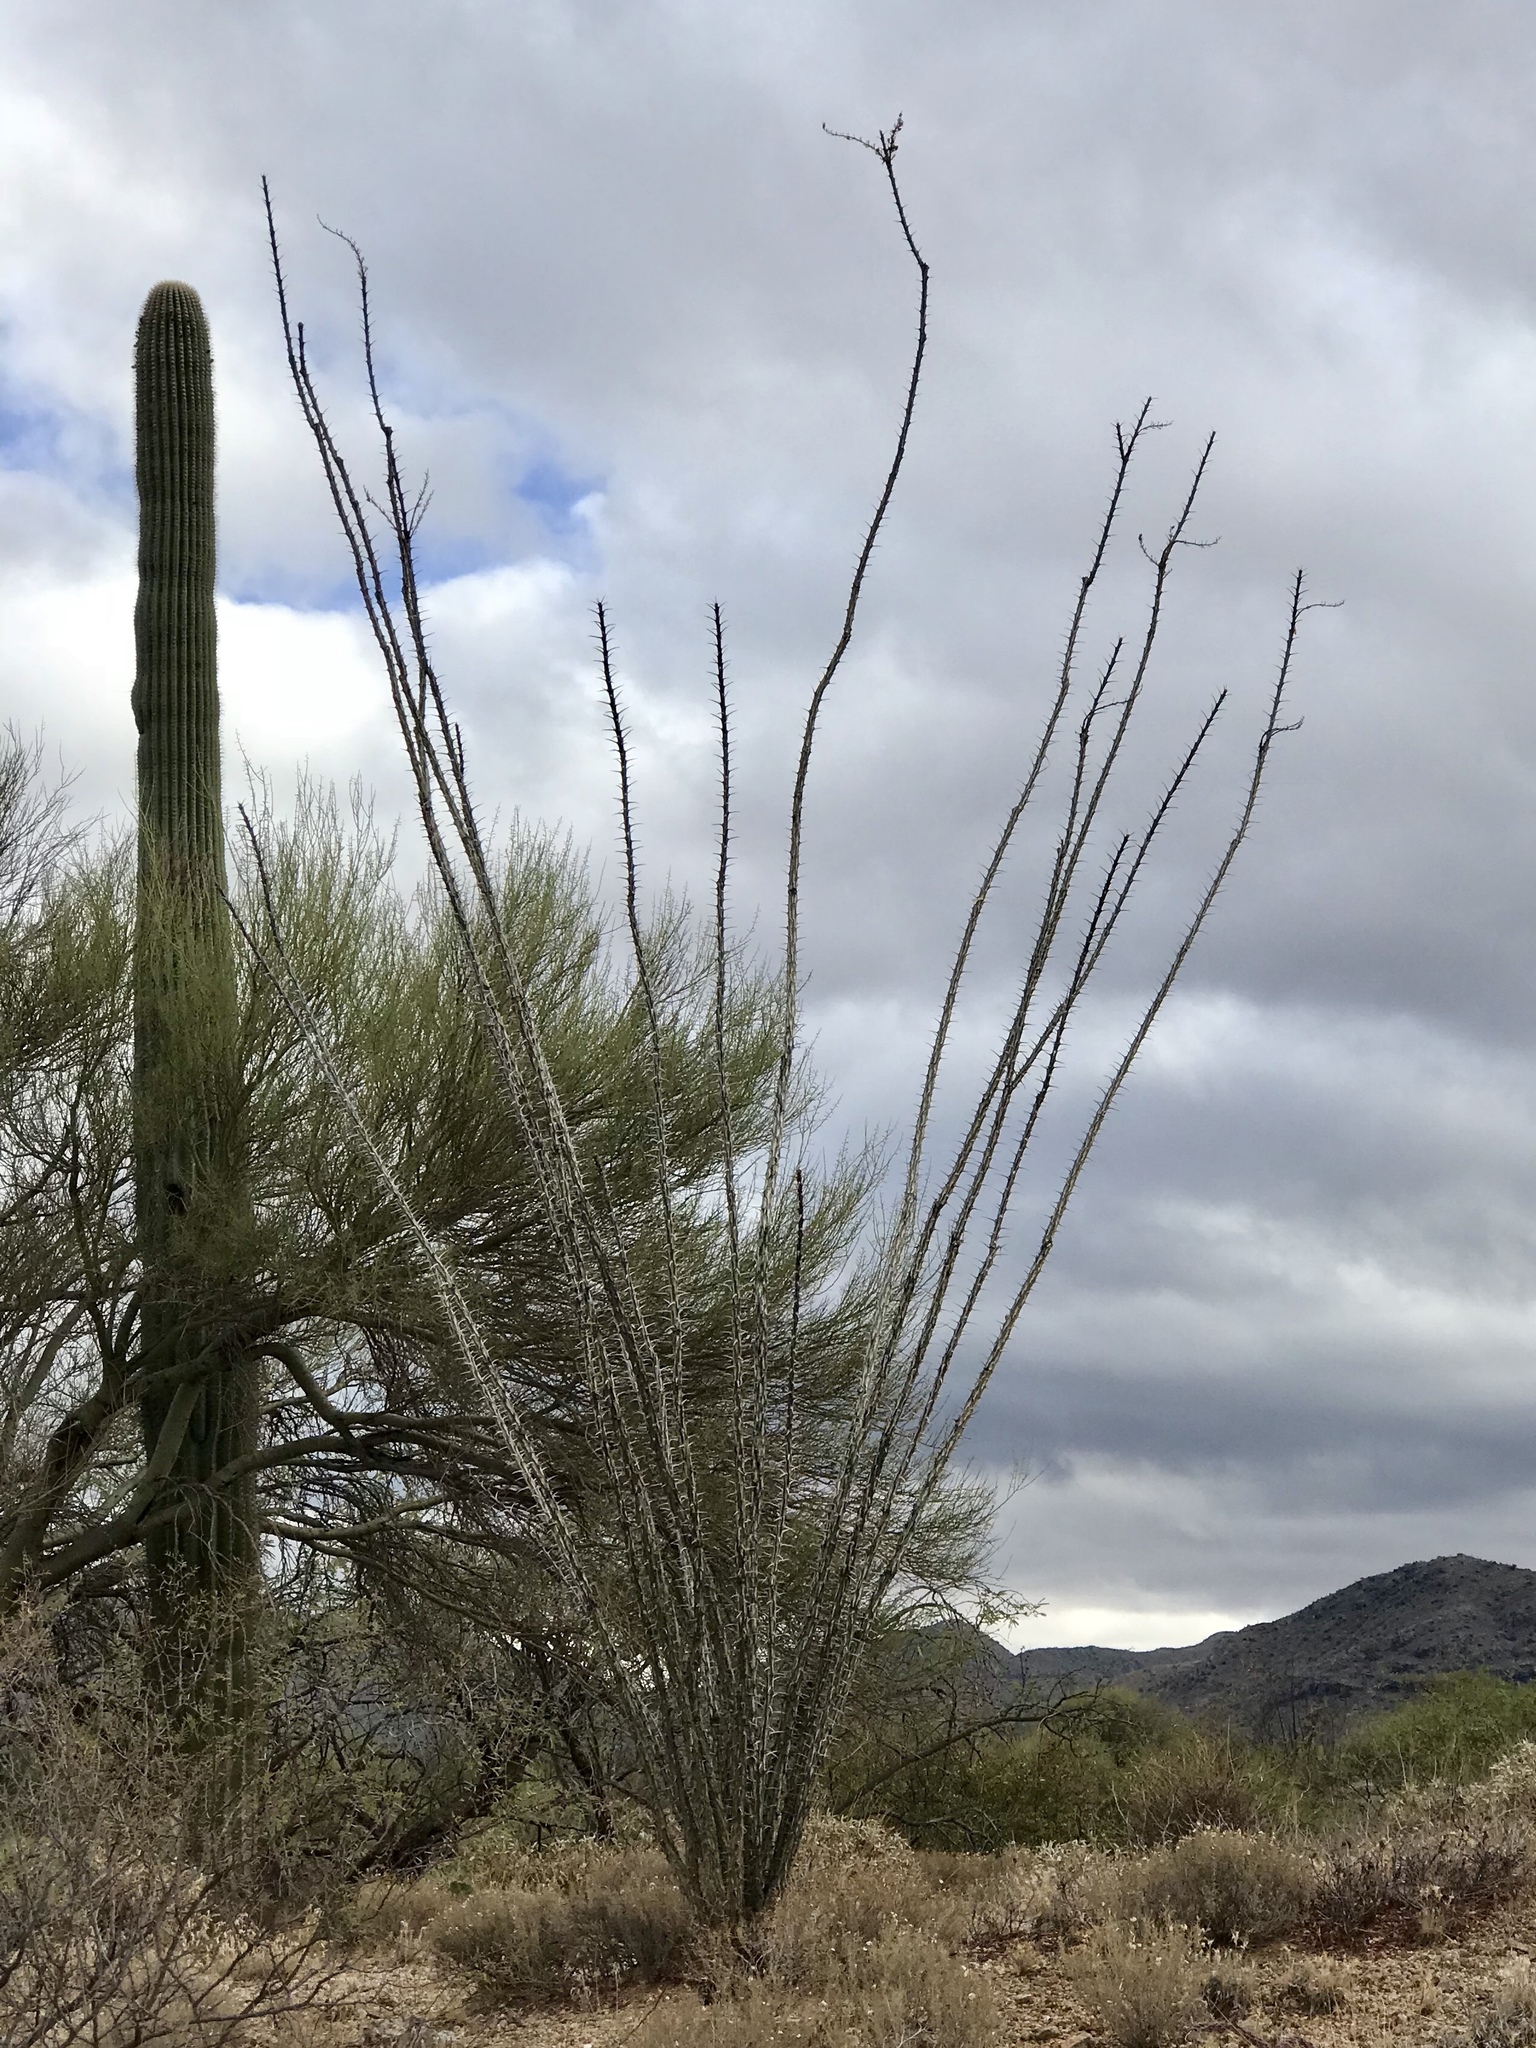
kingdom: Plantae
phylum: Tracheophyta
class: Magnoliopsida
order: Ericales
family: Fouquieriaceae
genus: Fouquieria
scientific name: Fouquieria splendens
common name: Vine-cactus
